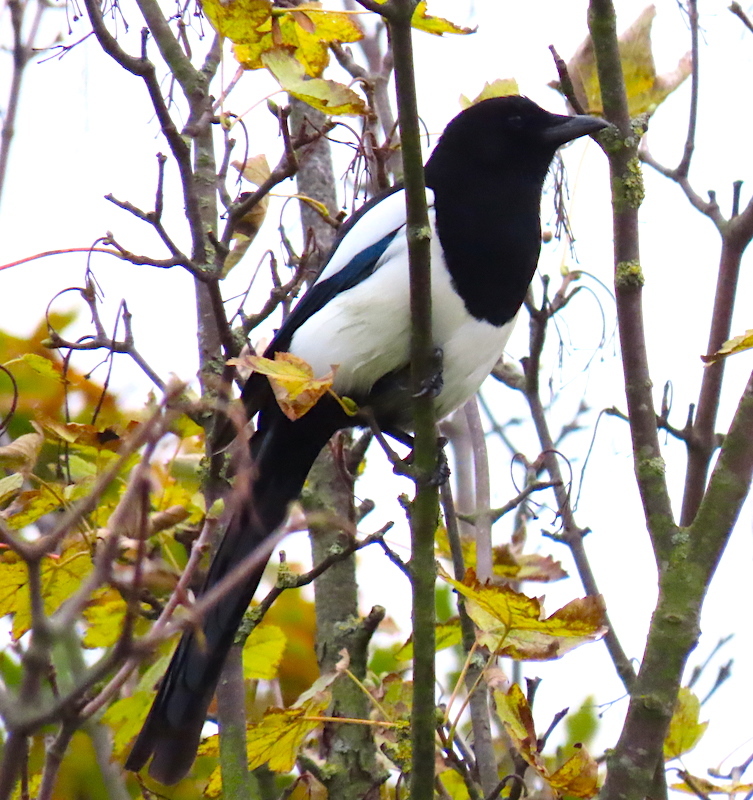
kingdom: Animalia
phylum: Chordata
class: Aves
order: Passeriformes
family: Corvidae
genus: Pica
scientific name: Pica pica
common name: Eurasian magpie
